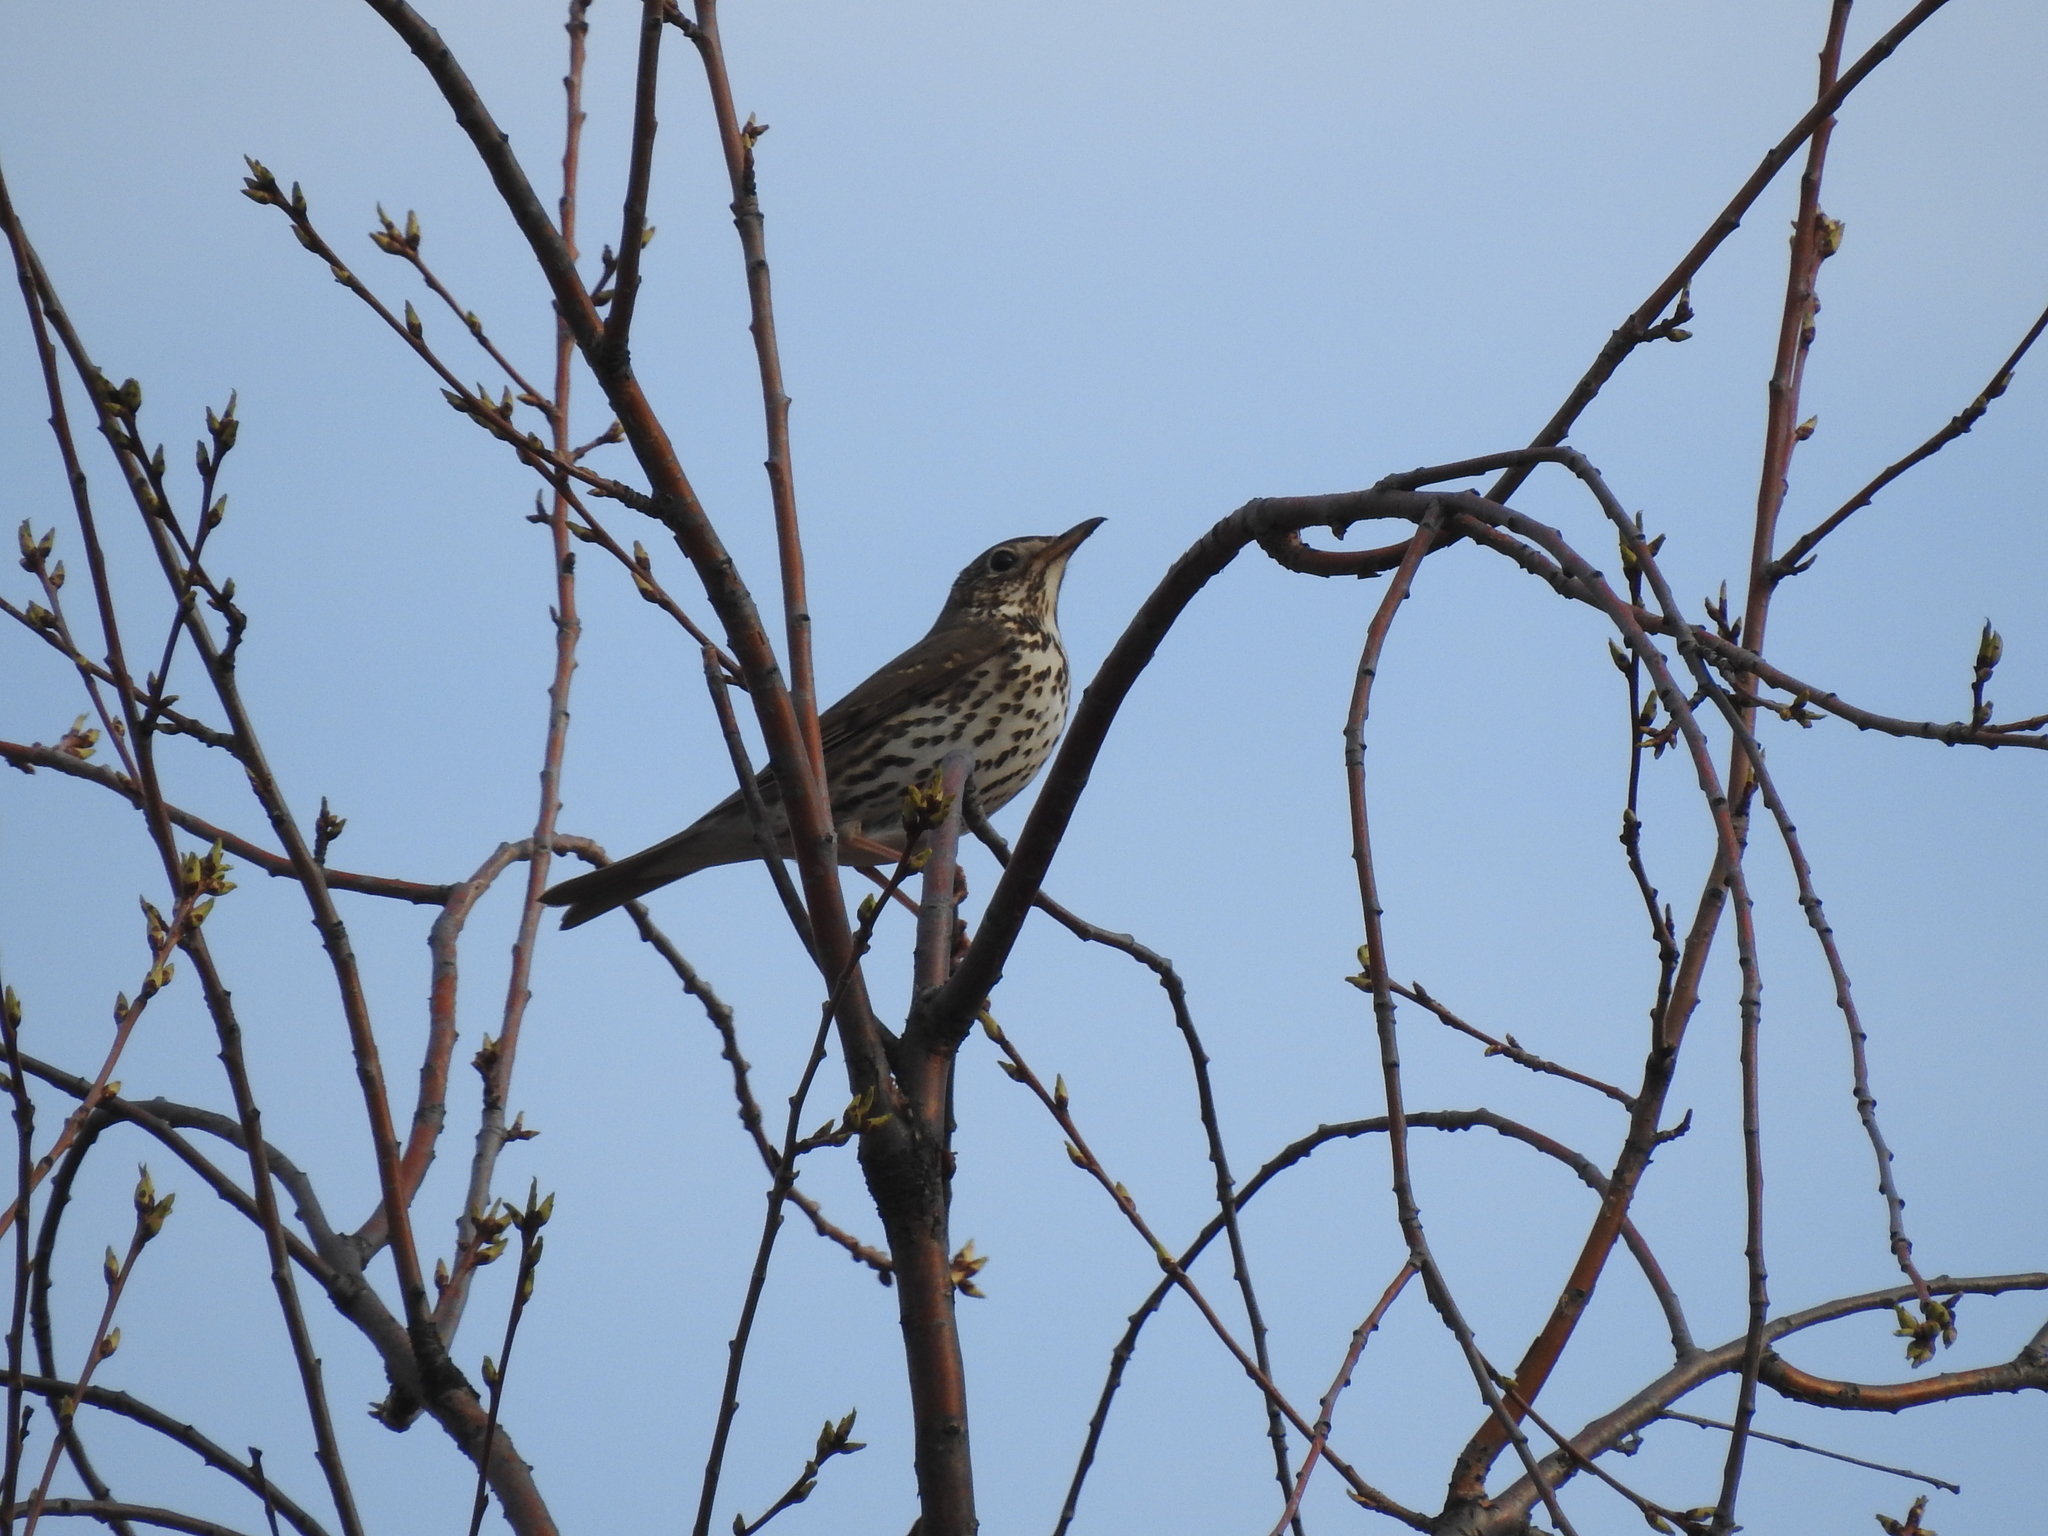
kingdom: Animalia
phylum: Chordata
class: Aves
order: Passeriformes
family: Turdidae
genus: Turdus
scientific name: Turdus philomelos
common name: Song thrush
